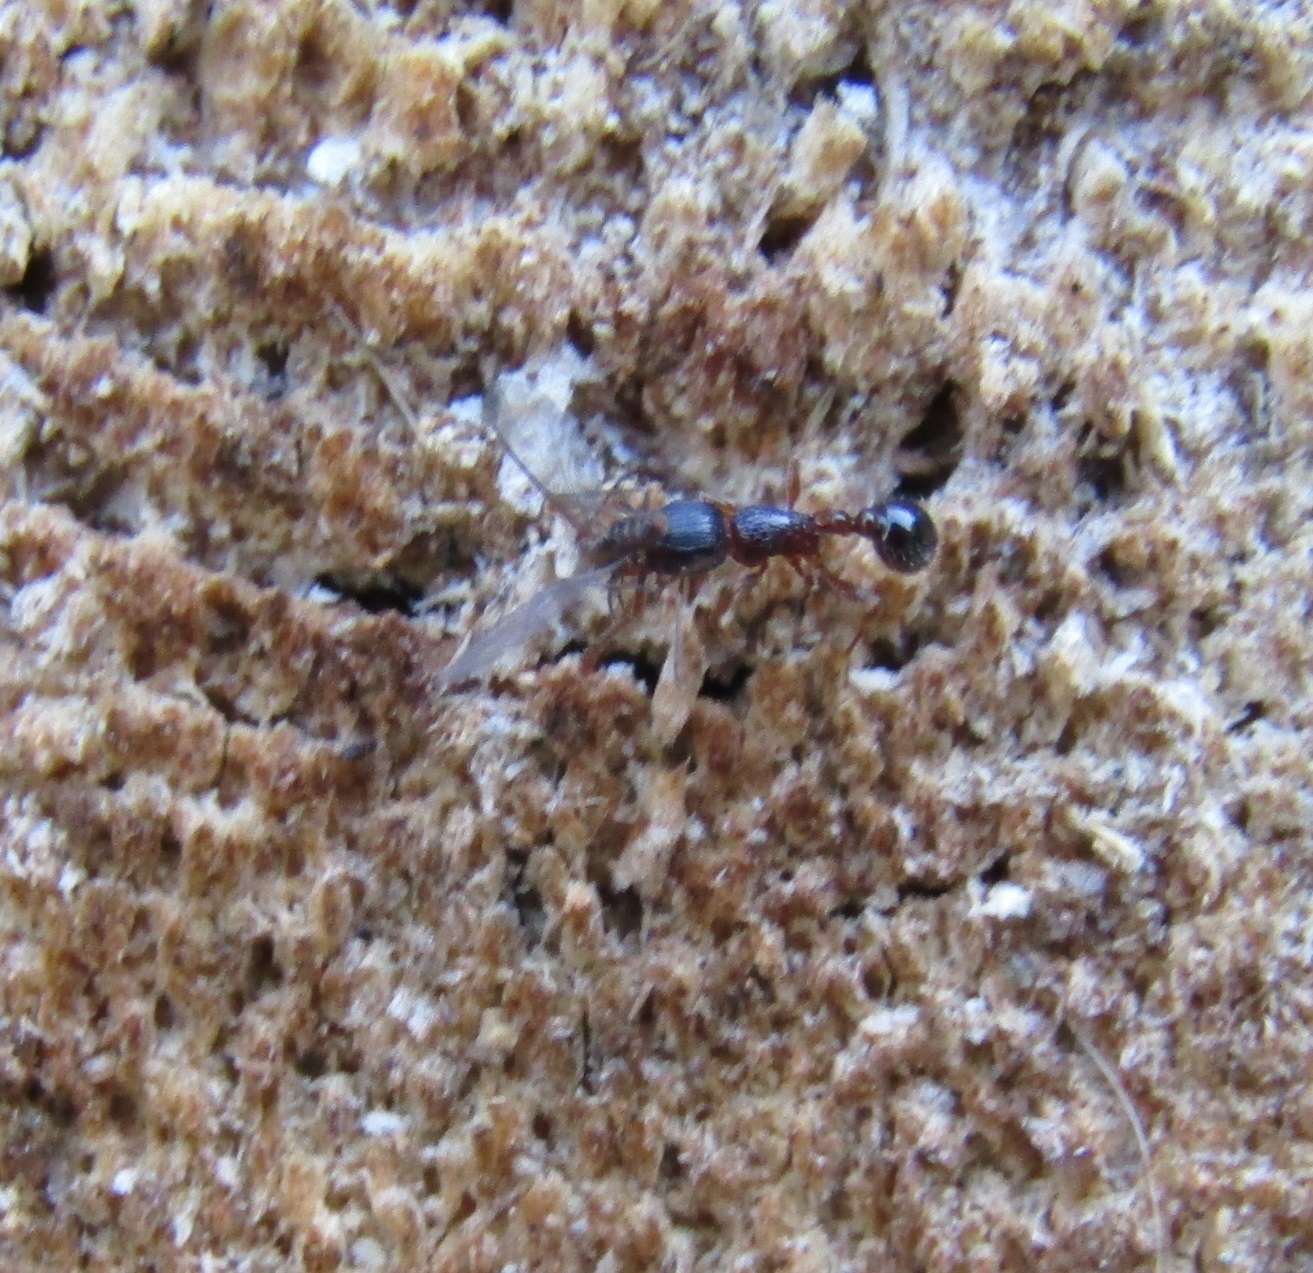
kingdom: Animalia
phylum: Arthropoda
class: Insecta
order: Hymenoptera
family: Formicidae
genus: Tetramorium
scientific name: Tetramorium grassii
